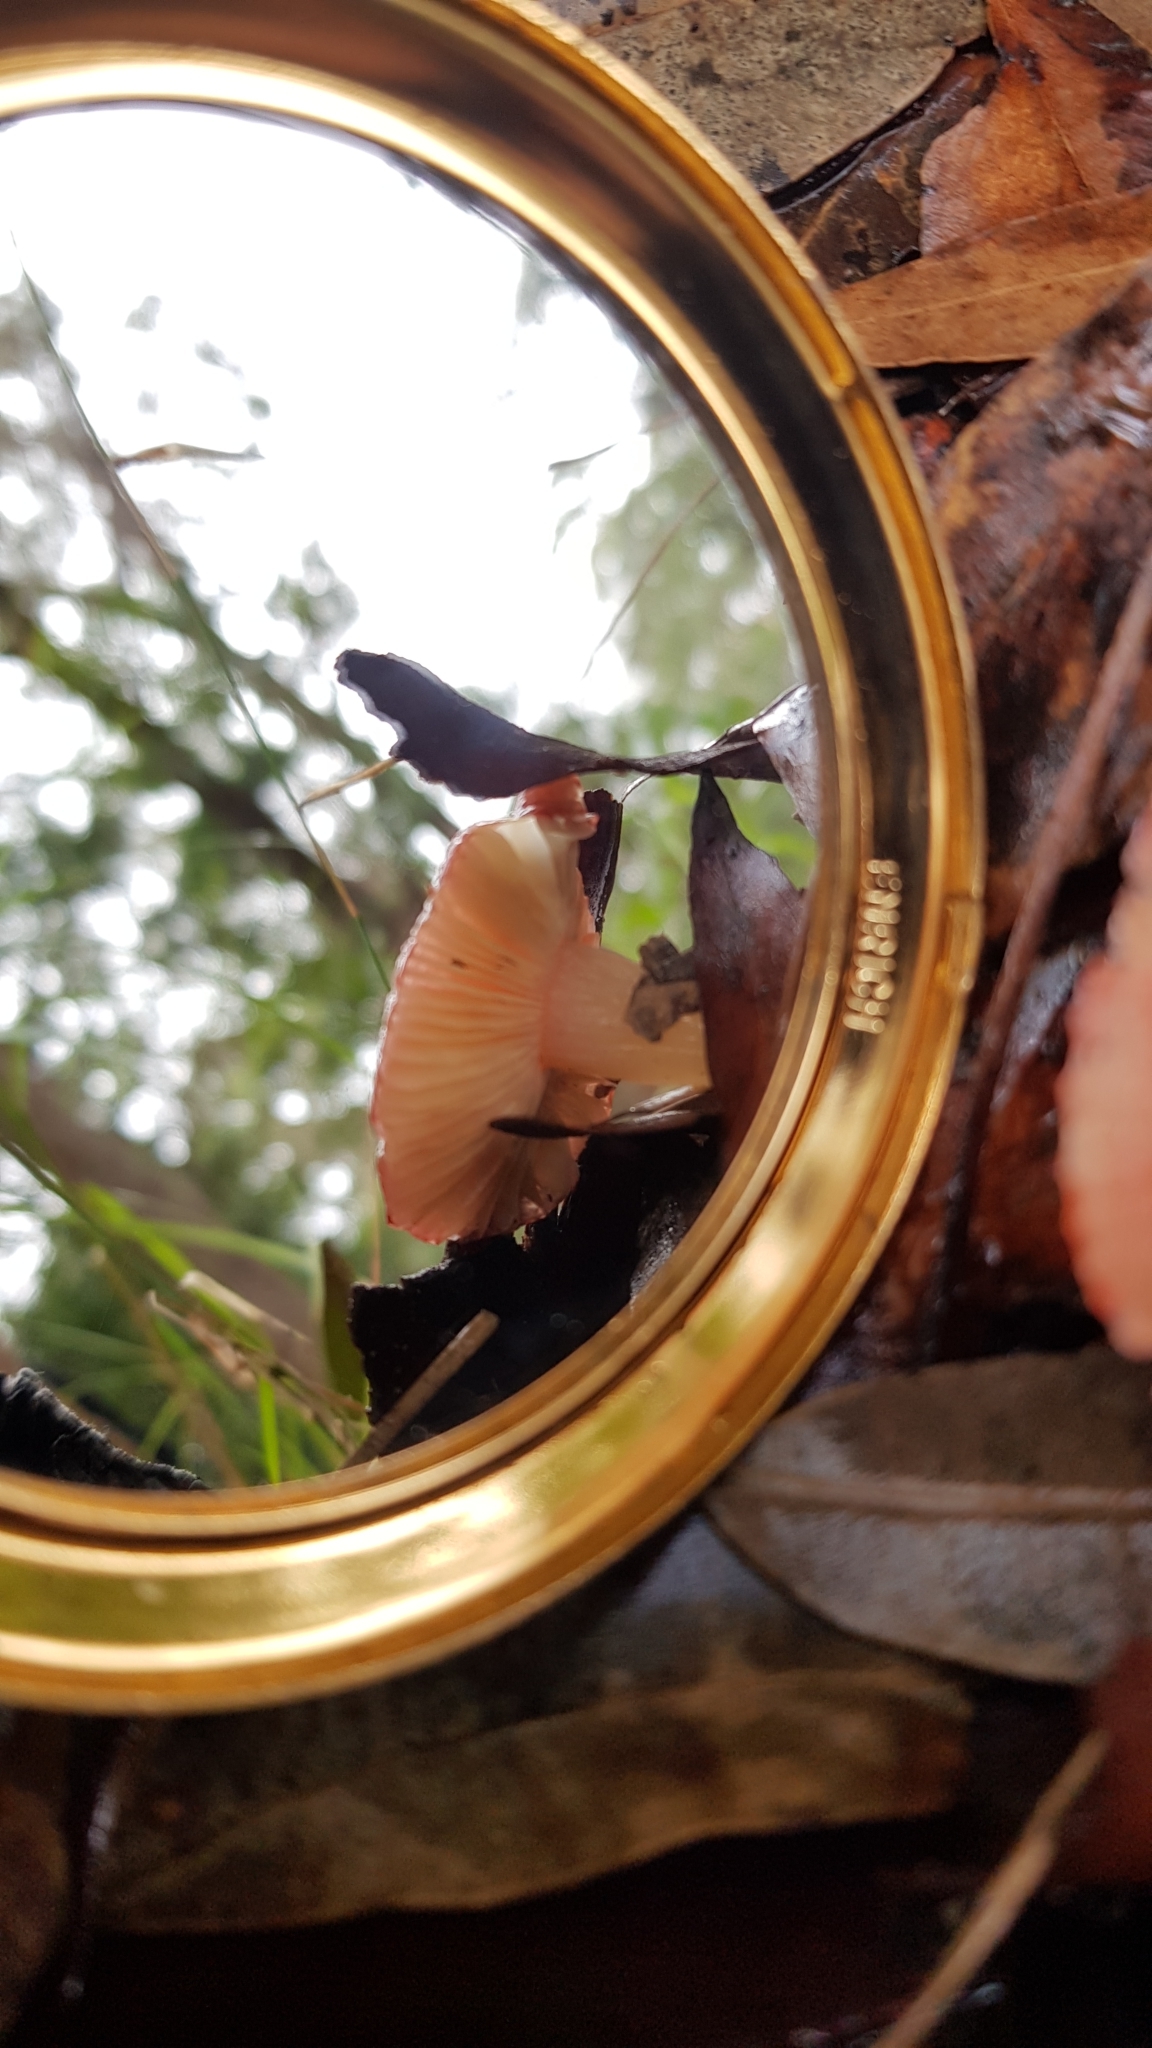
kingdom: Fungi
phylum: Basidiomycota
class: Agaricomycetes
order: Russulales
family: Russulaceae
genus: Russula
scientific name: Russula clelandii
